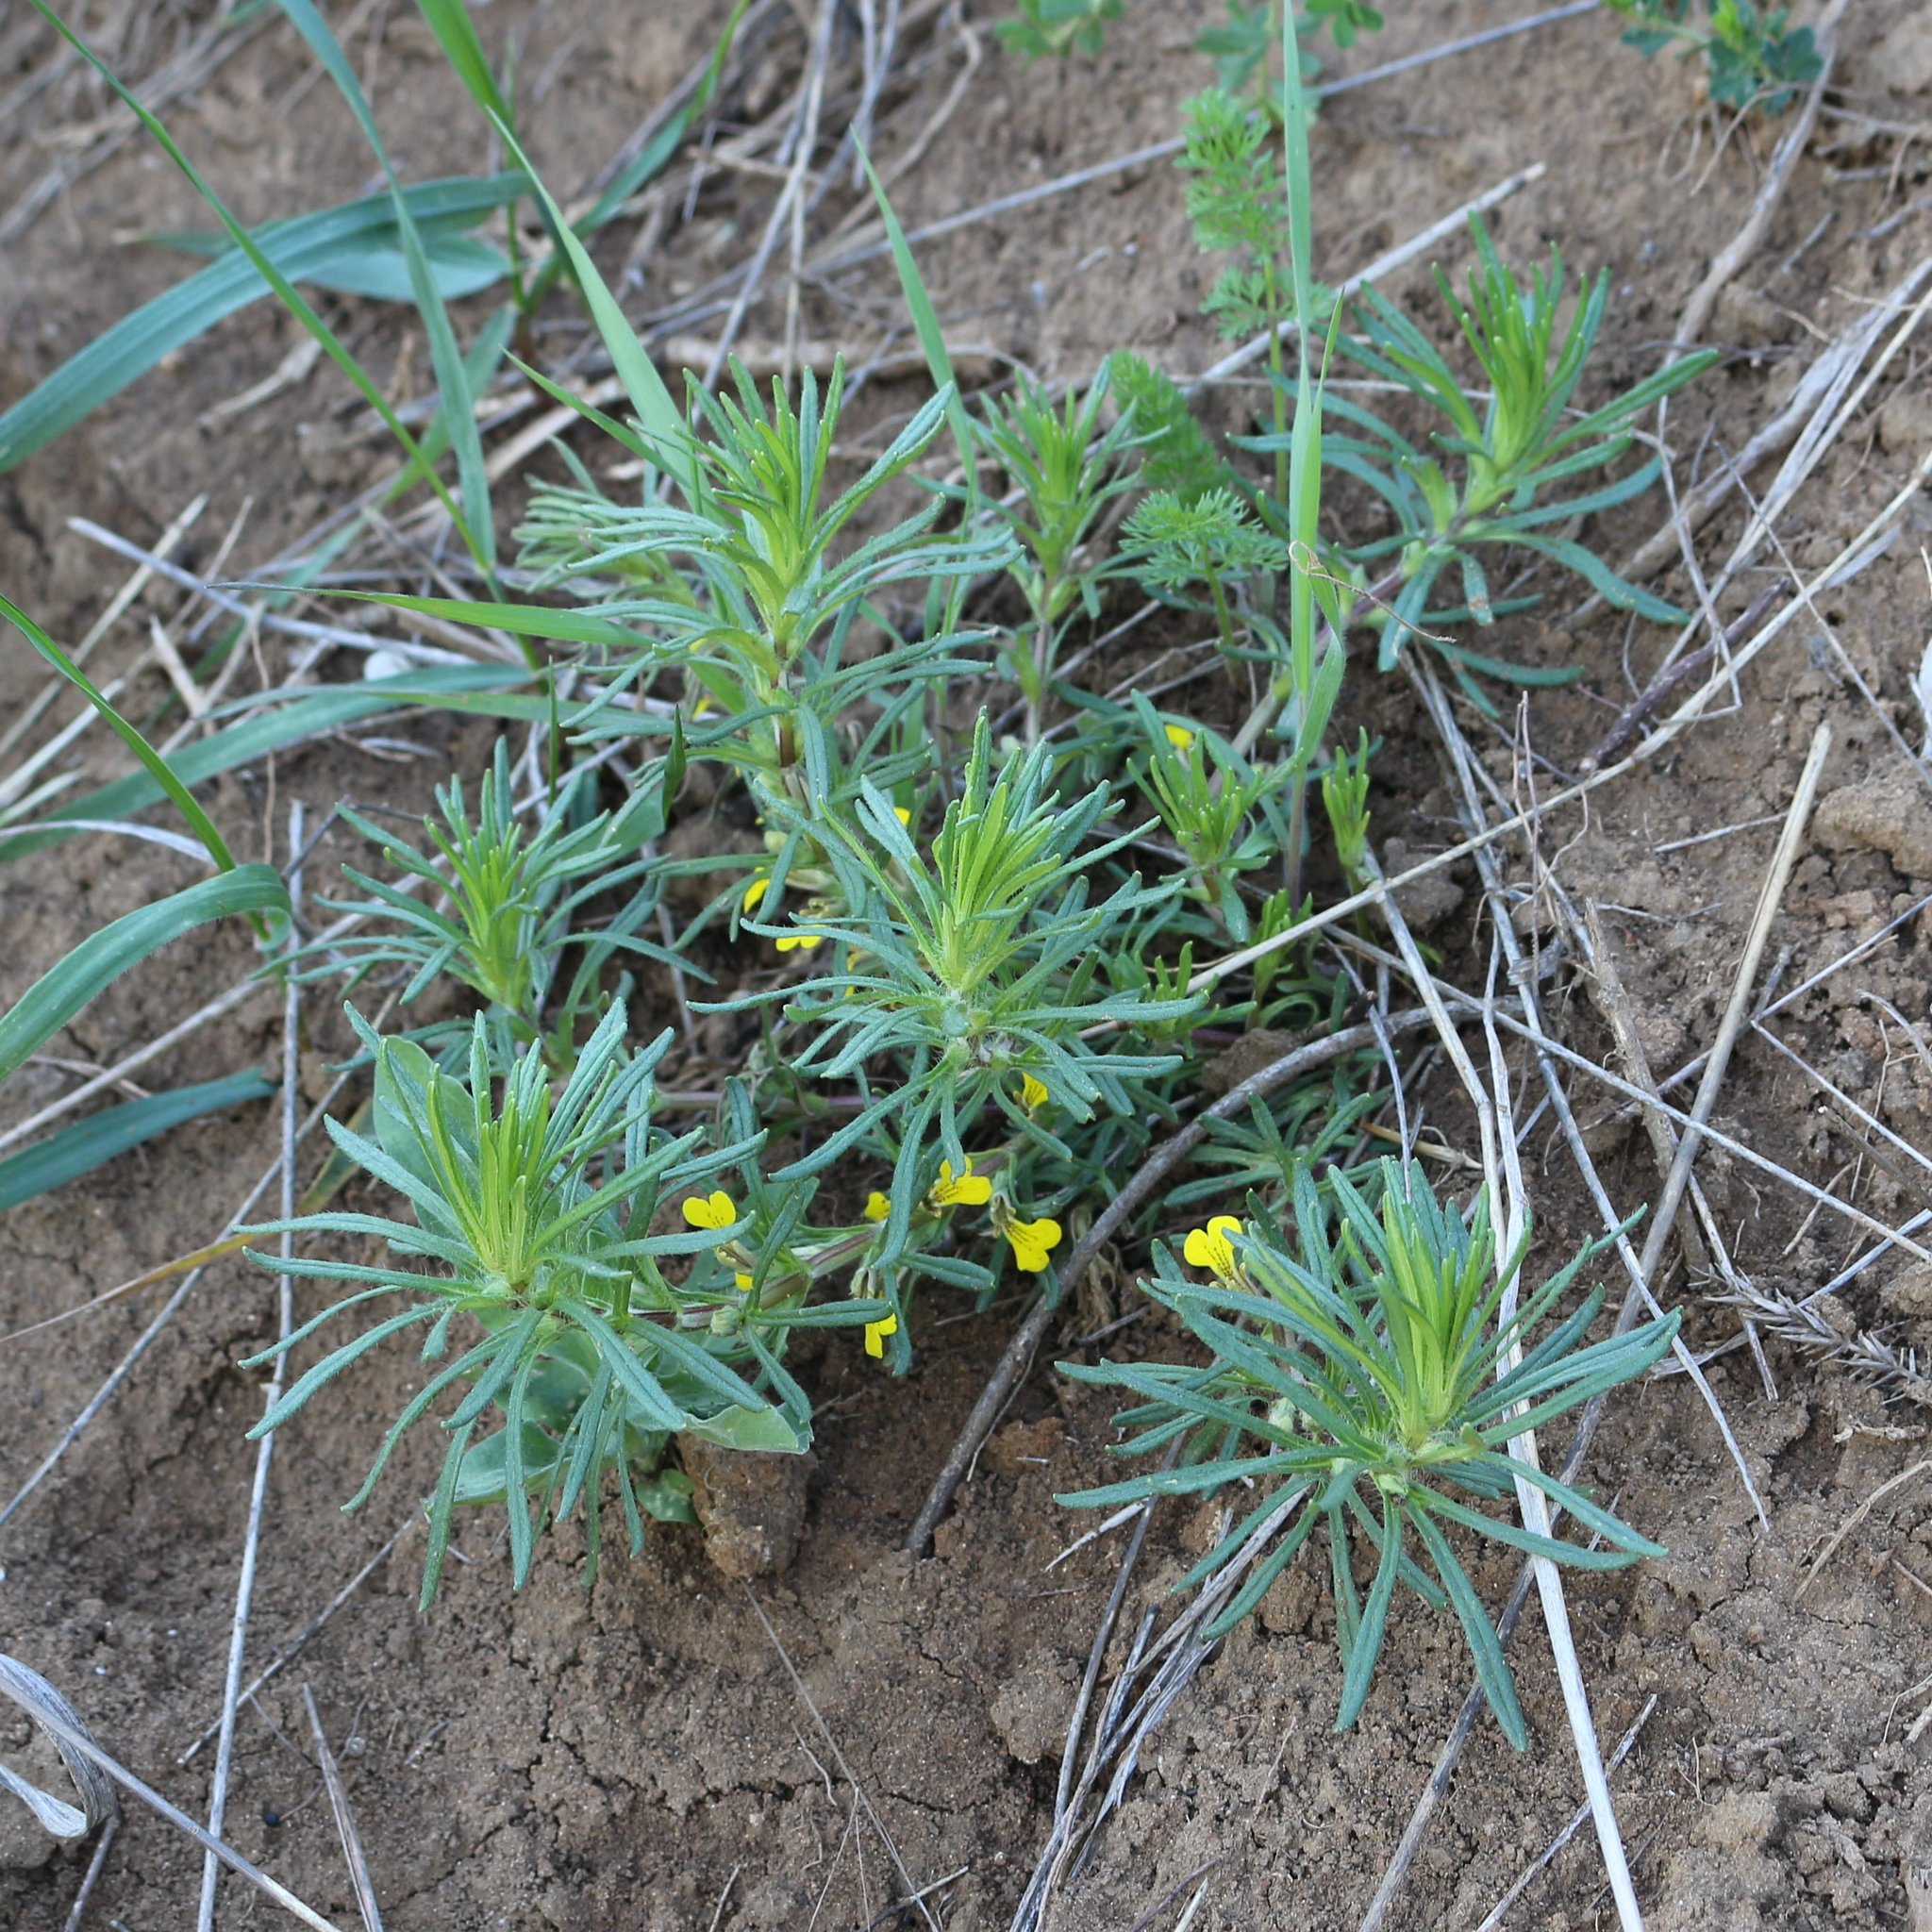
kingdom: Plantae
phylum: Tracheophyta
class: Magnoliopsida
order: Lamiales
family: Lamiaceae
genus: Ajuga
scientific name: Ajuga chamaepitys
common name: Ground-pine
